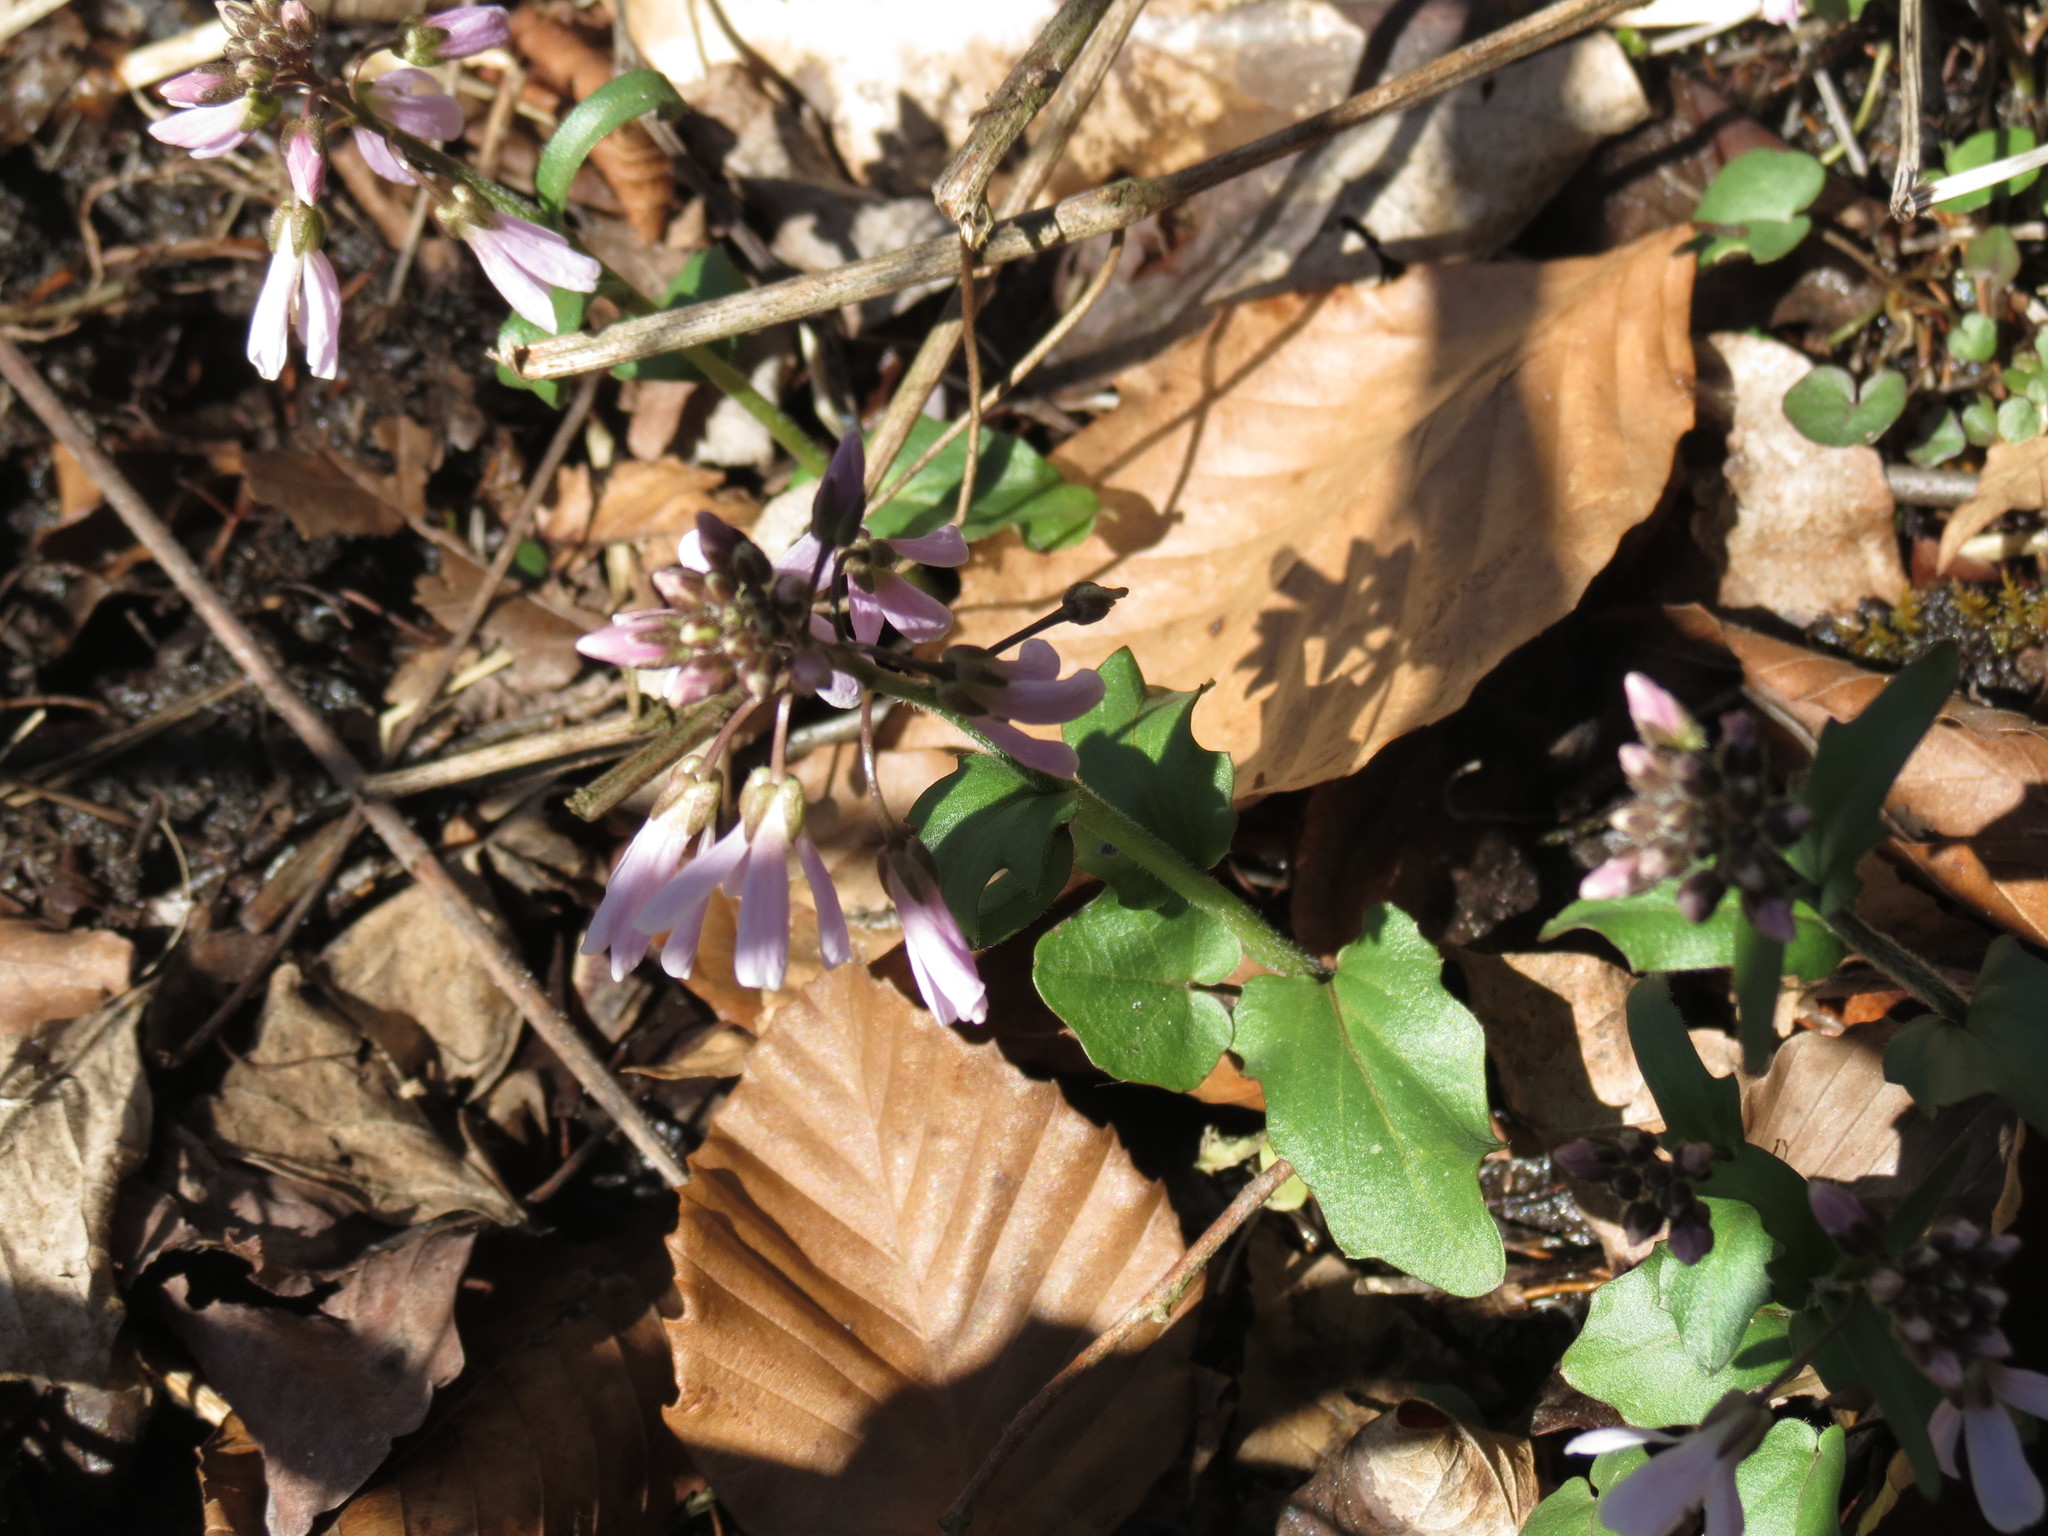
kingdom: Plantae
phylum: Tracheophyta
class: Magnoliopsida
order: Brassicales
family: Brassicaceae
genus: Cardamine
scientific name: Cardamine douglassii
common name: Purple cress
